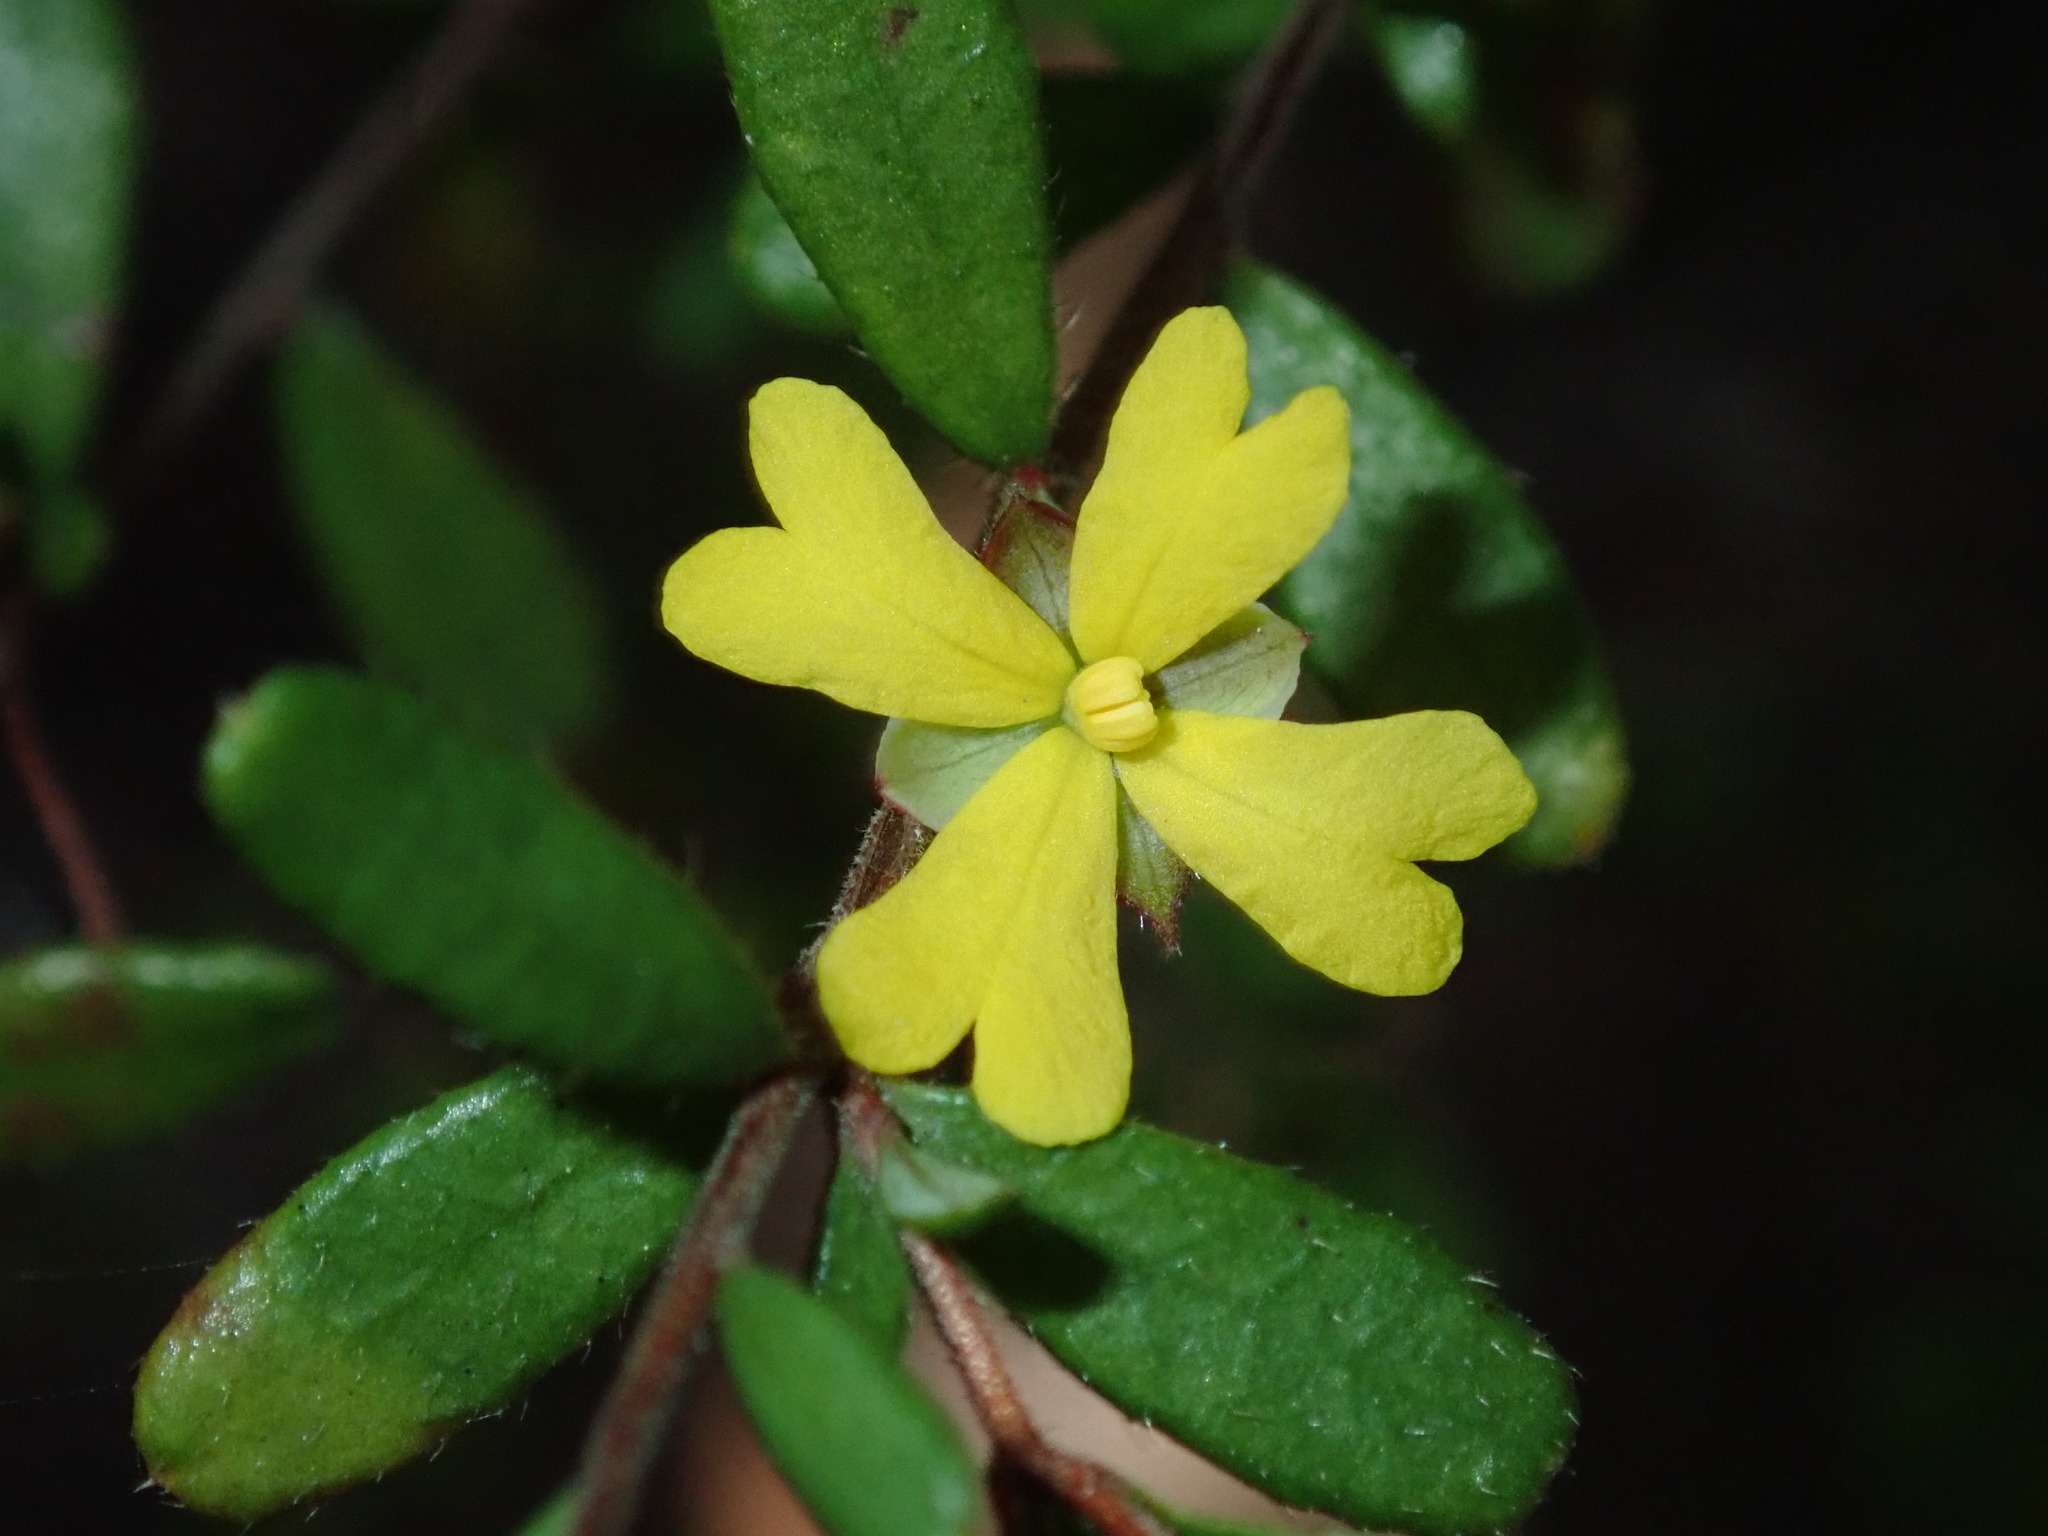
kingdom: Plantae
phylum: Tracheophyta
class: Magnoliopsida
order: Dilleniales
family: Dilleniaceae
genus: Hibbertia
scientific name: Hibbertia empetrifolia
